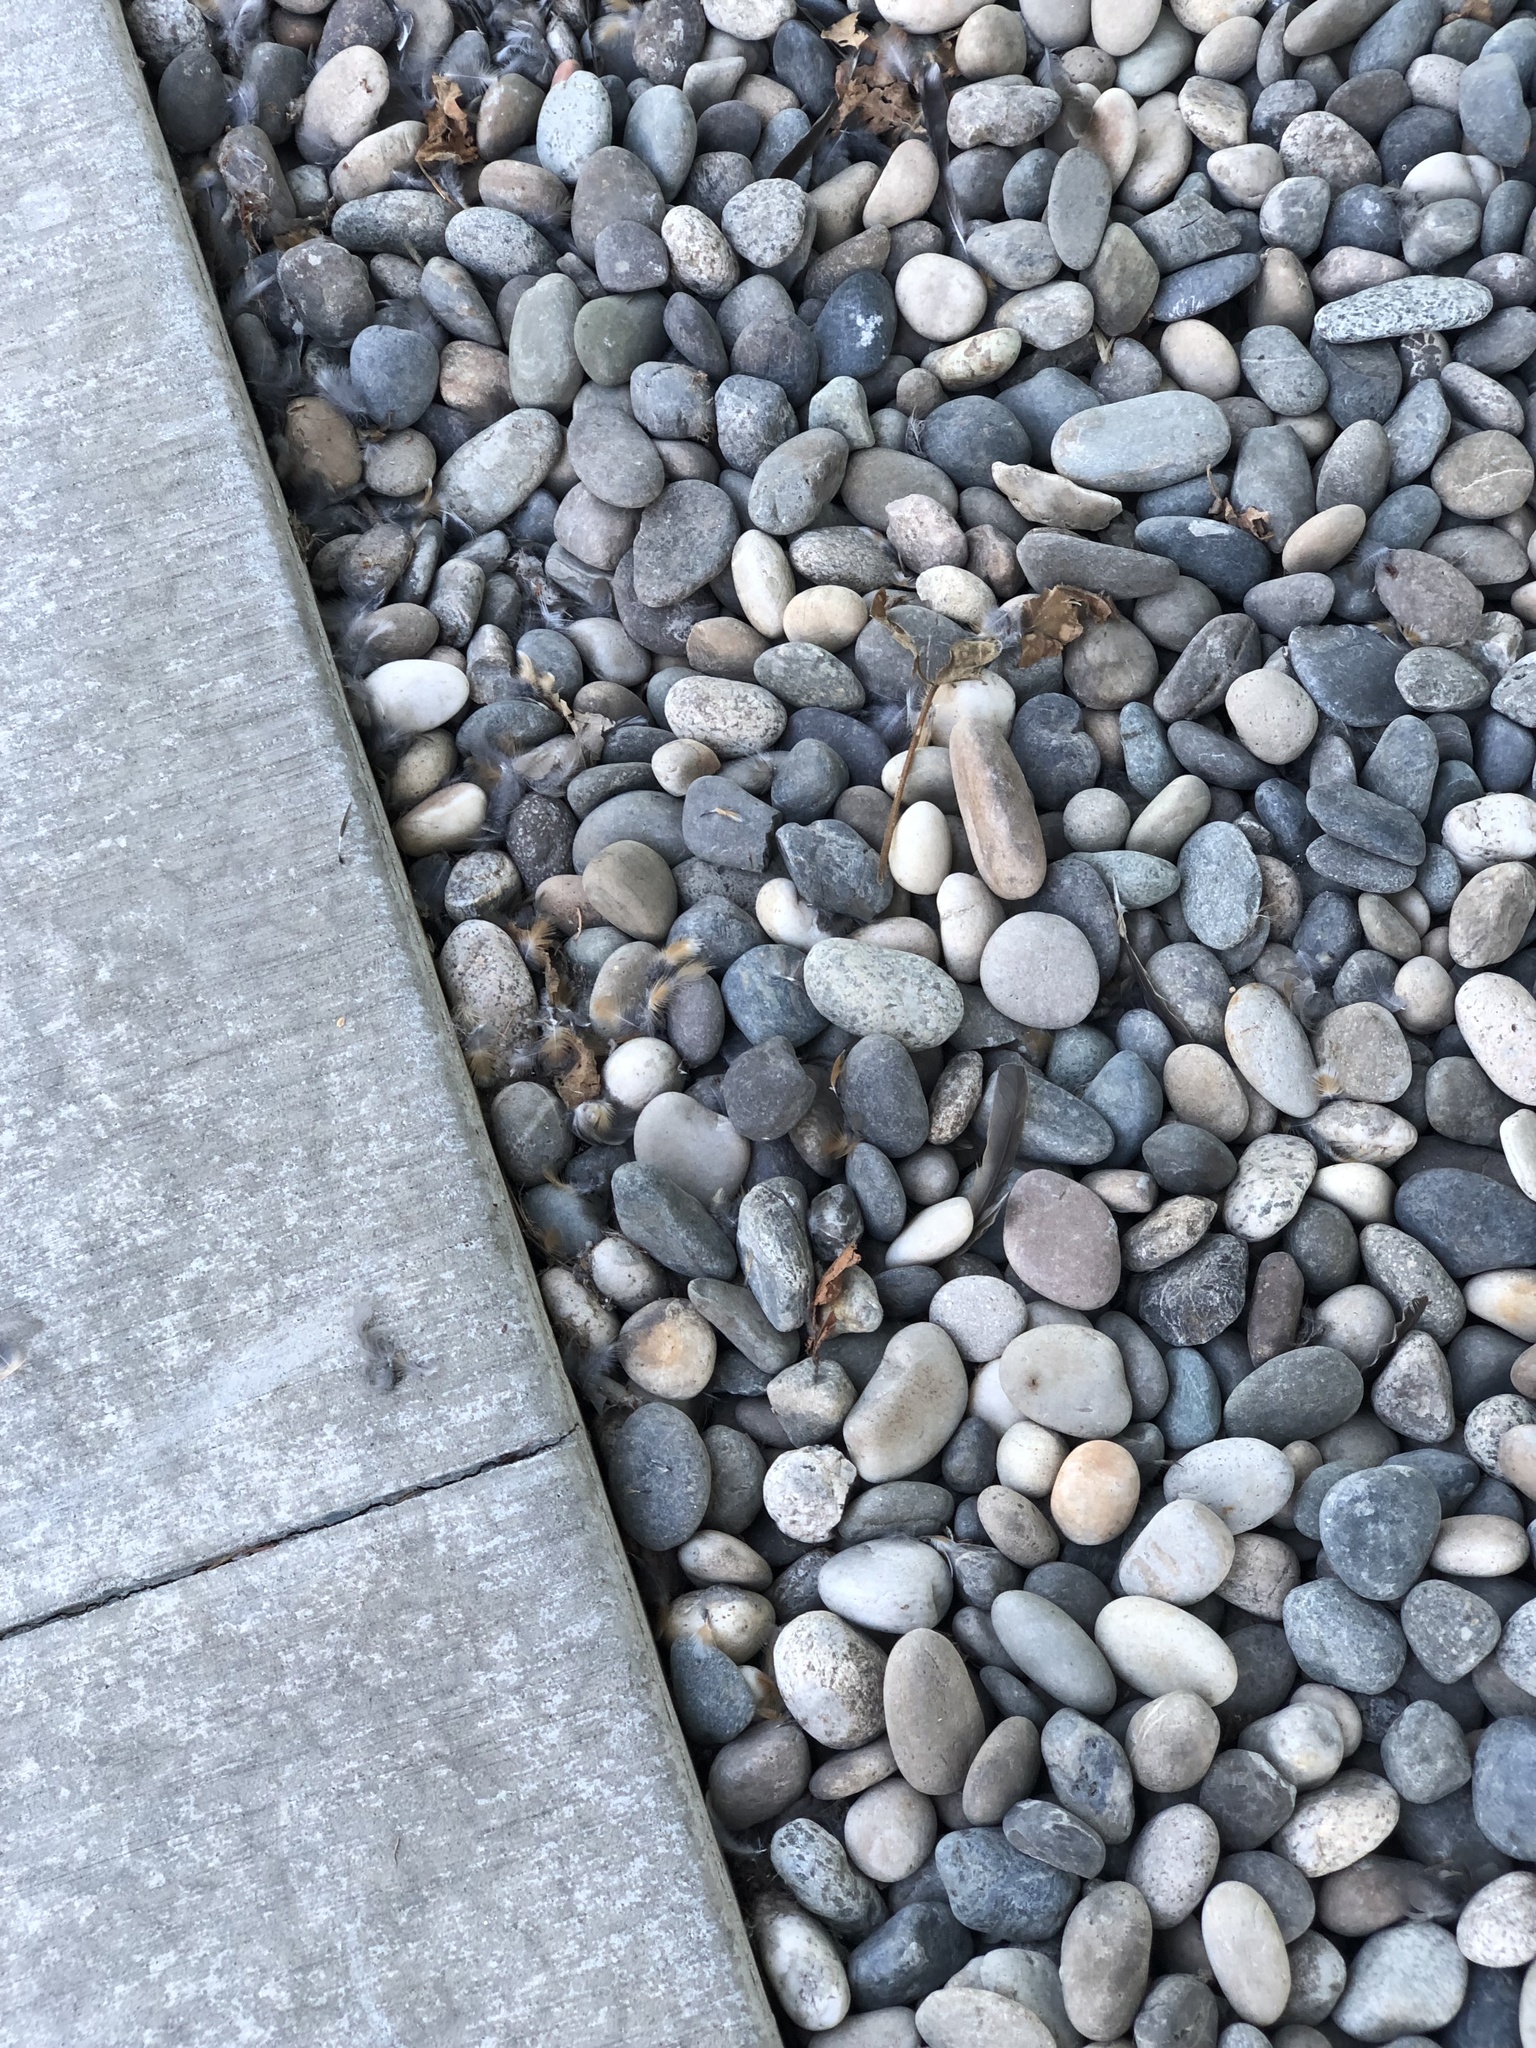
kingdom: Animalia
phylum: Chordata
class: Aves
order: Passeriformes
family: Turdidae
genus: Turdus
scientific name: Turdus migratorius
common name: American robin
